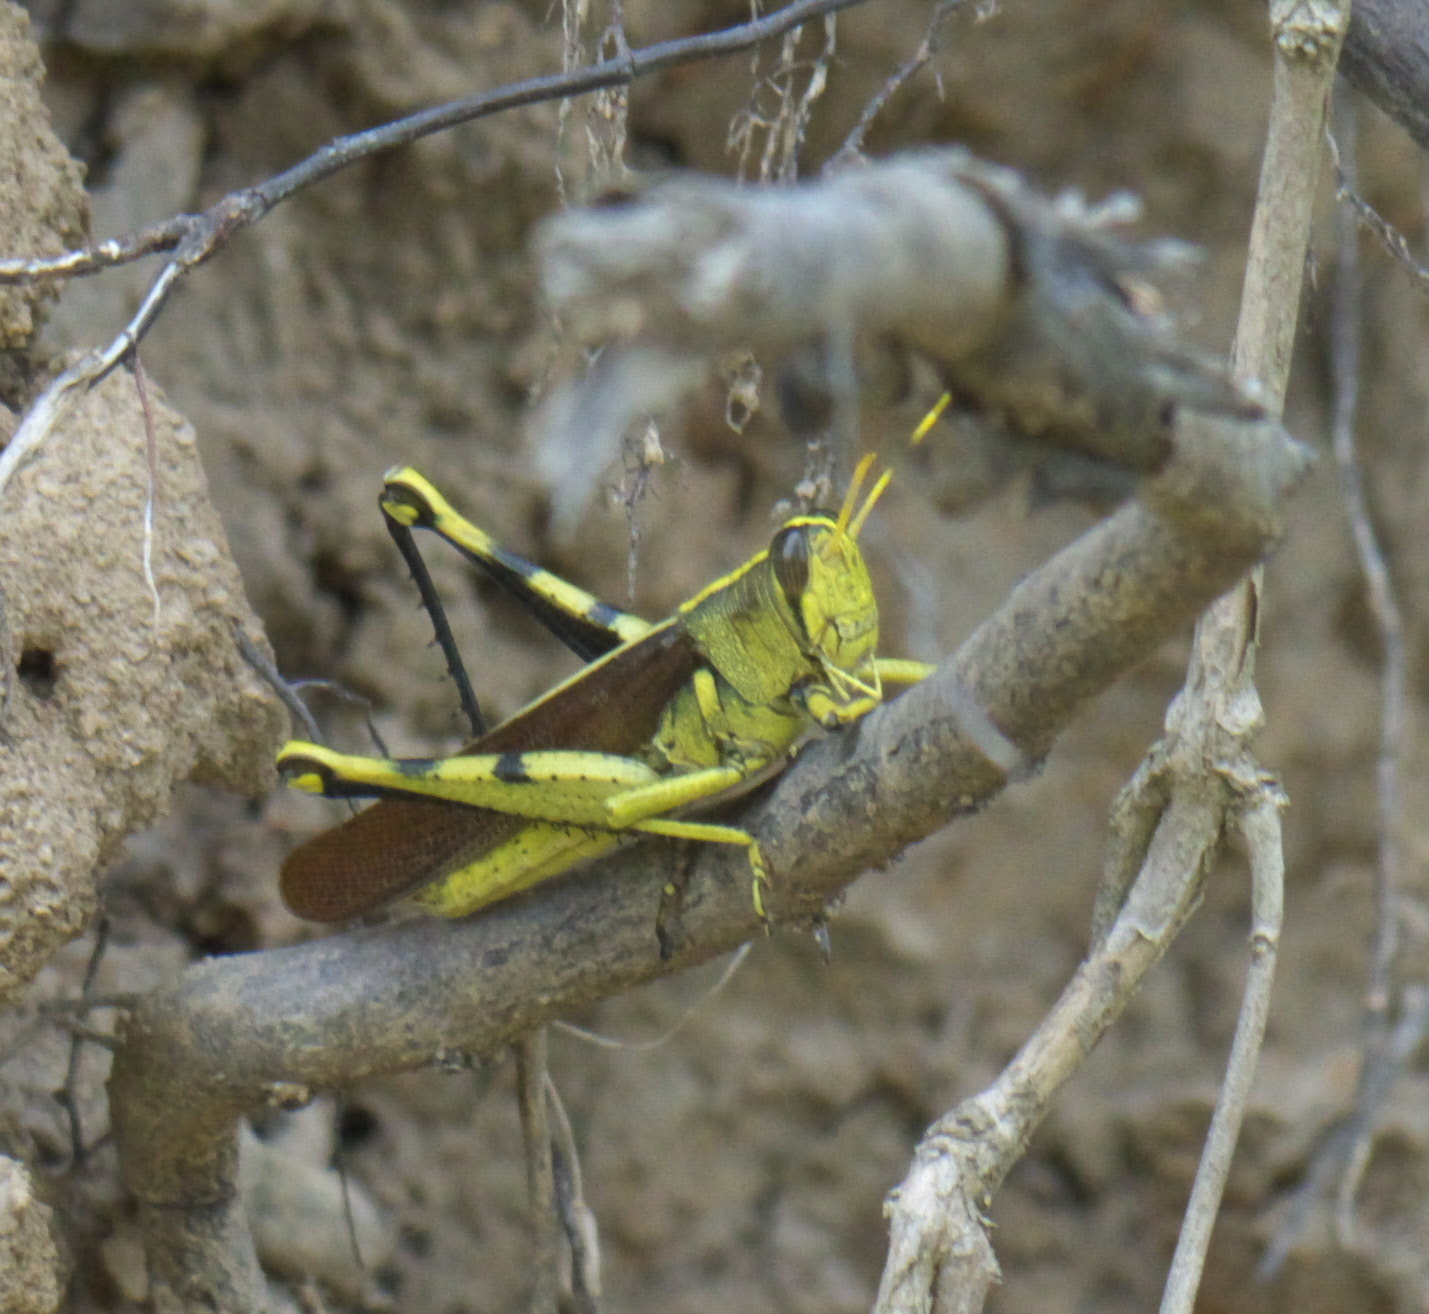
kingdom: Animalia
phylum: Arthropoda
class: Insecta
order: Orthoptera
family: Acrididae
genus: Schistocerca
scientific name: Schistocerca obscura
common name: Obscure bird grasshopper
